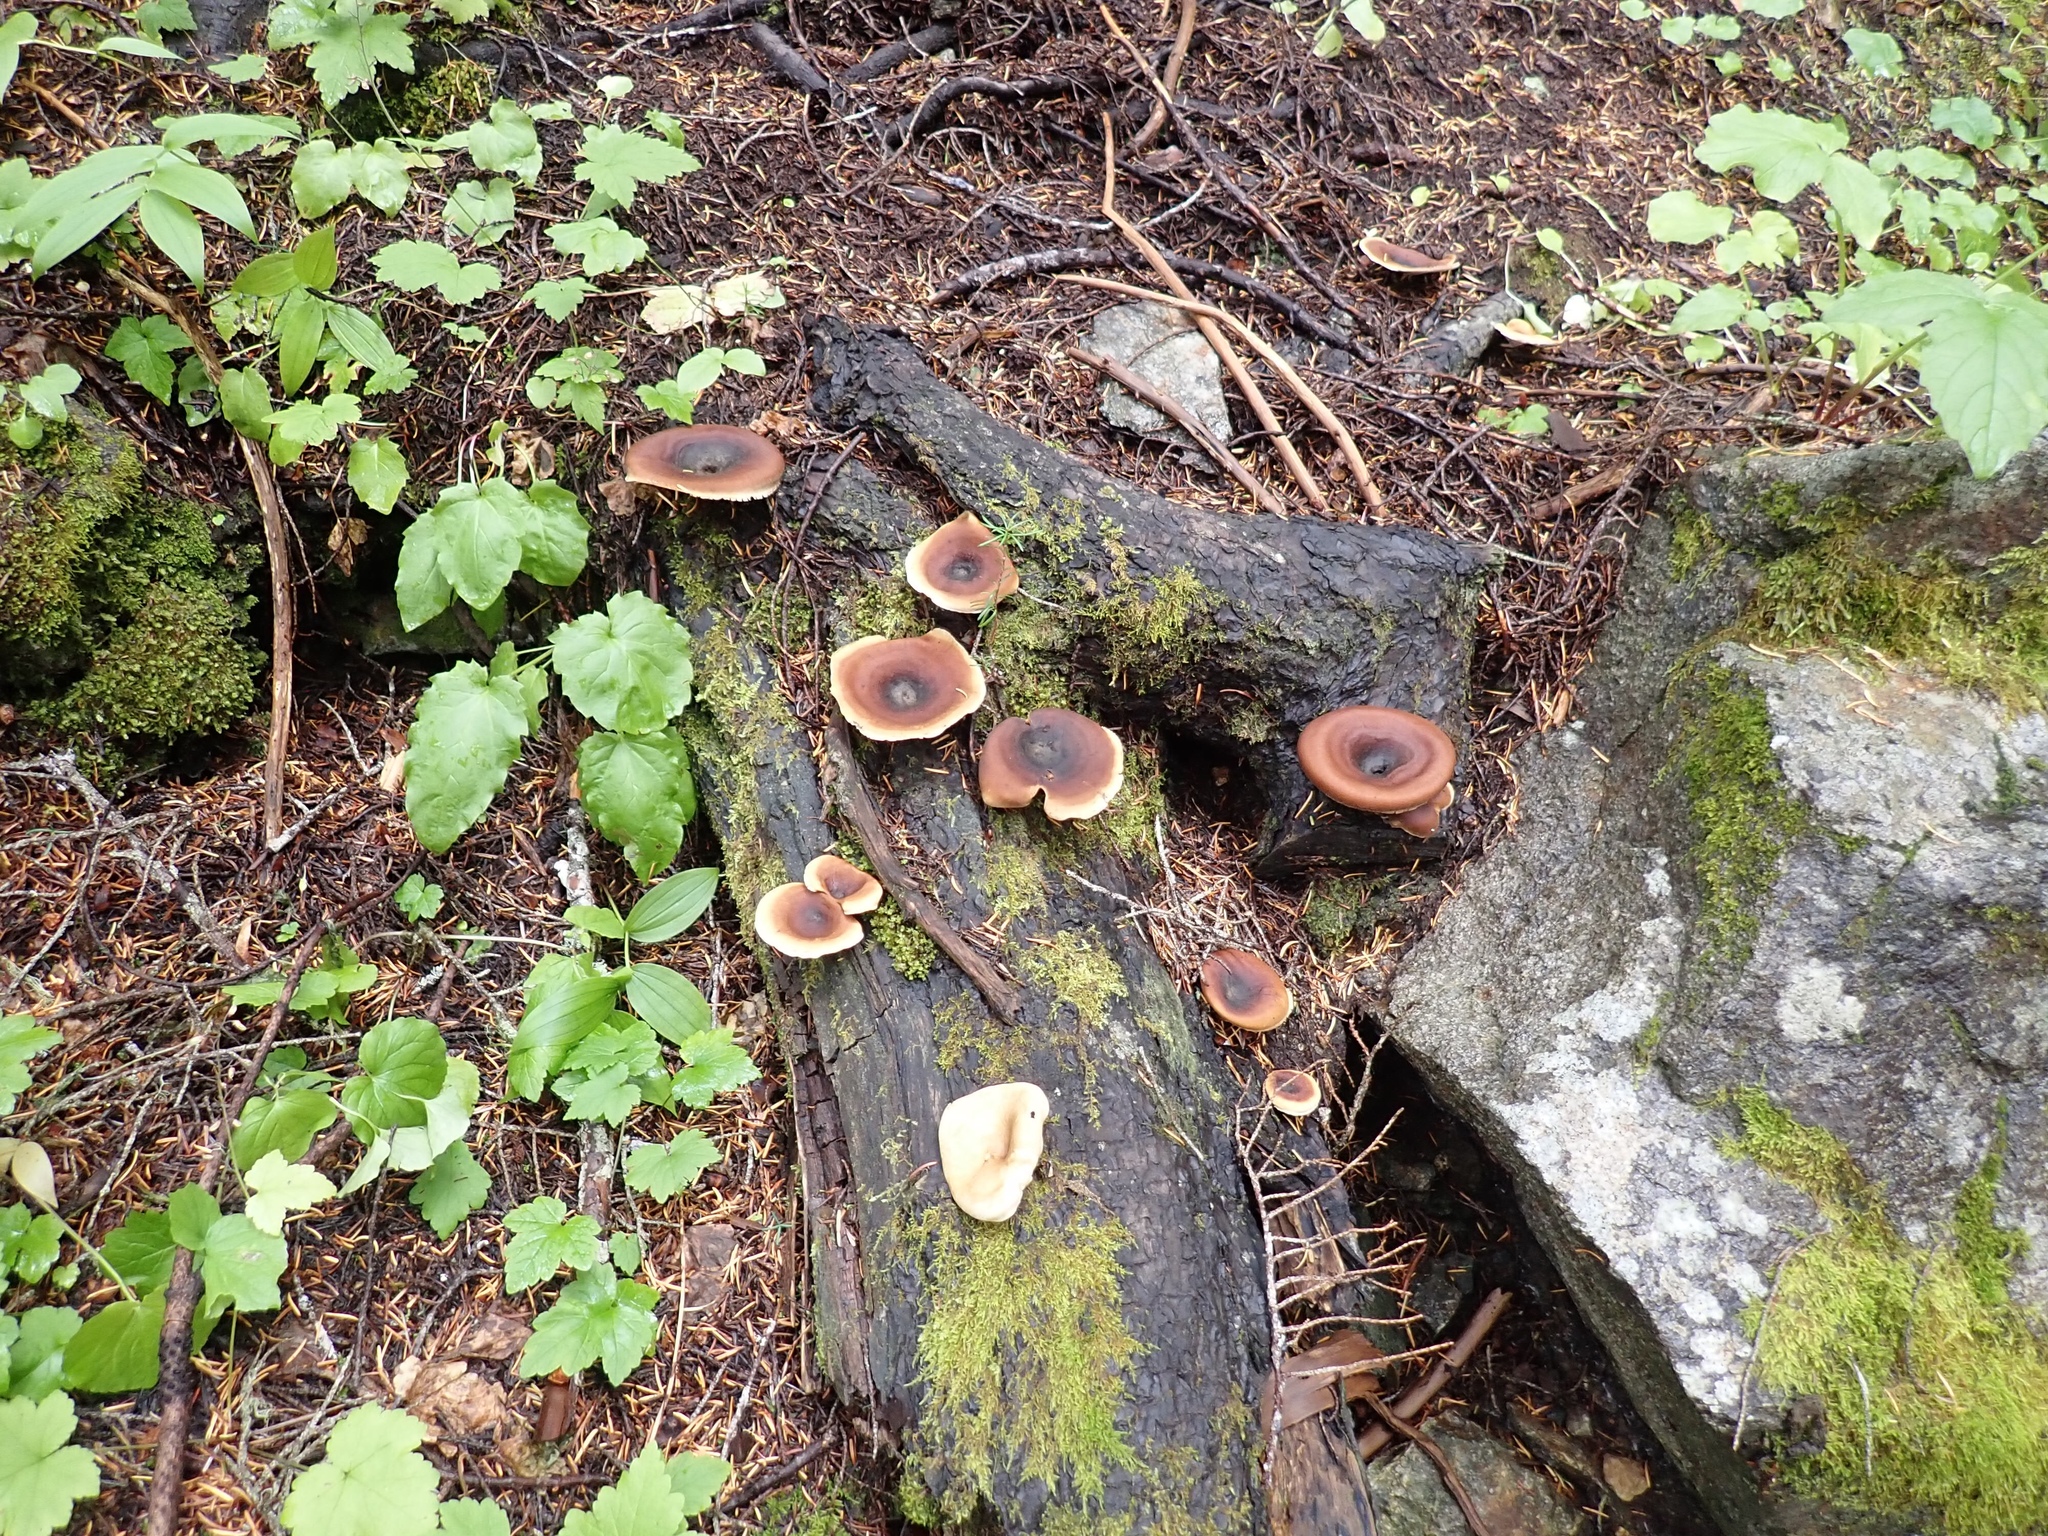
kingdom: Fungi
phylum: Basidiomycota
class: Agaricomycetes
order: Polyporales
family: Polyporaceae
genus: Picipes
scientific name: Picipes badius
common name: Bay polypore
